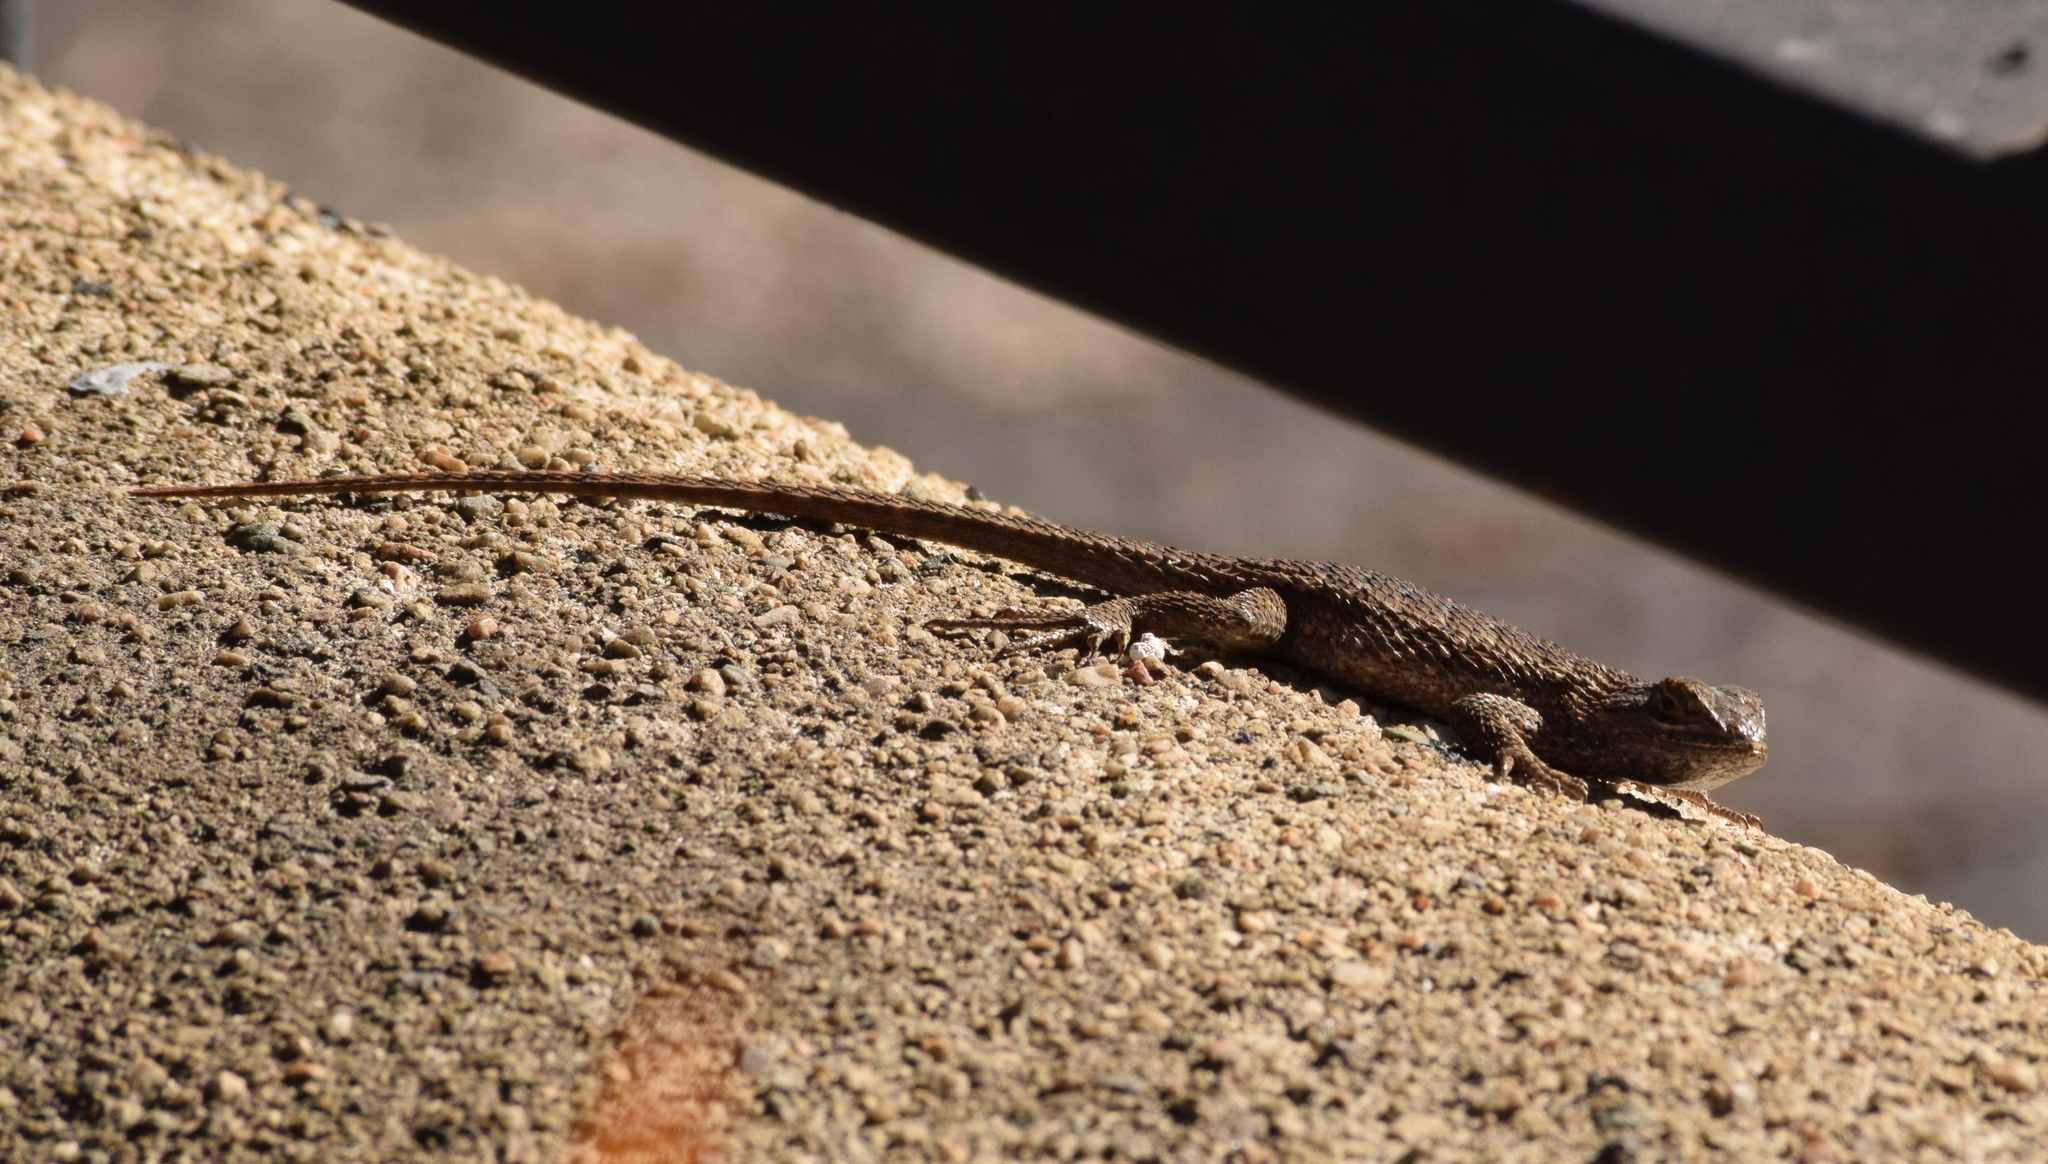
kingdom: Animalia
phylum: Chordata
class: Squamata
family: Phrynosomatidae
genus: Sceloporus
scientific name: Sceloporus occidentalis
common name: Western fence lizard
